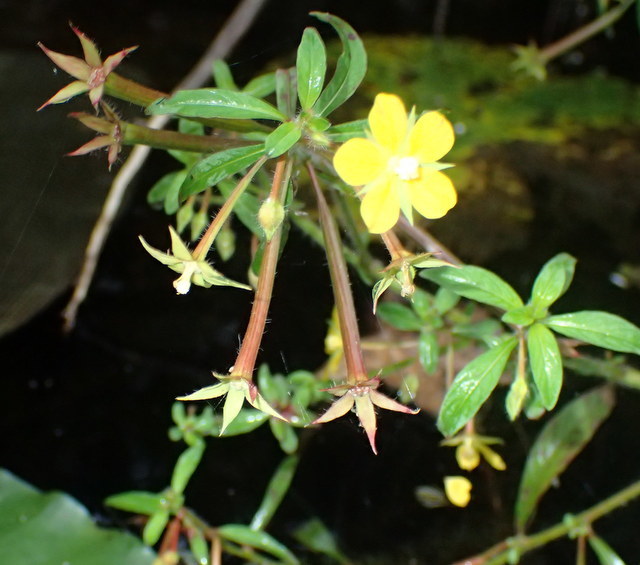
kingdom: Plantae
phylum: Tracheophyta
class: Magnoliopsida
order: Myrtales
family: Onagraceae
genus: Ludwigia
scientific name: Ludwigia leptocarpa
